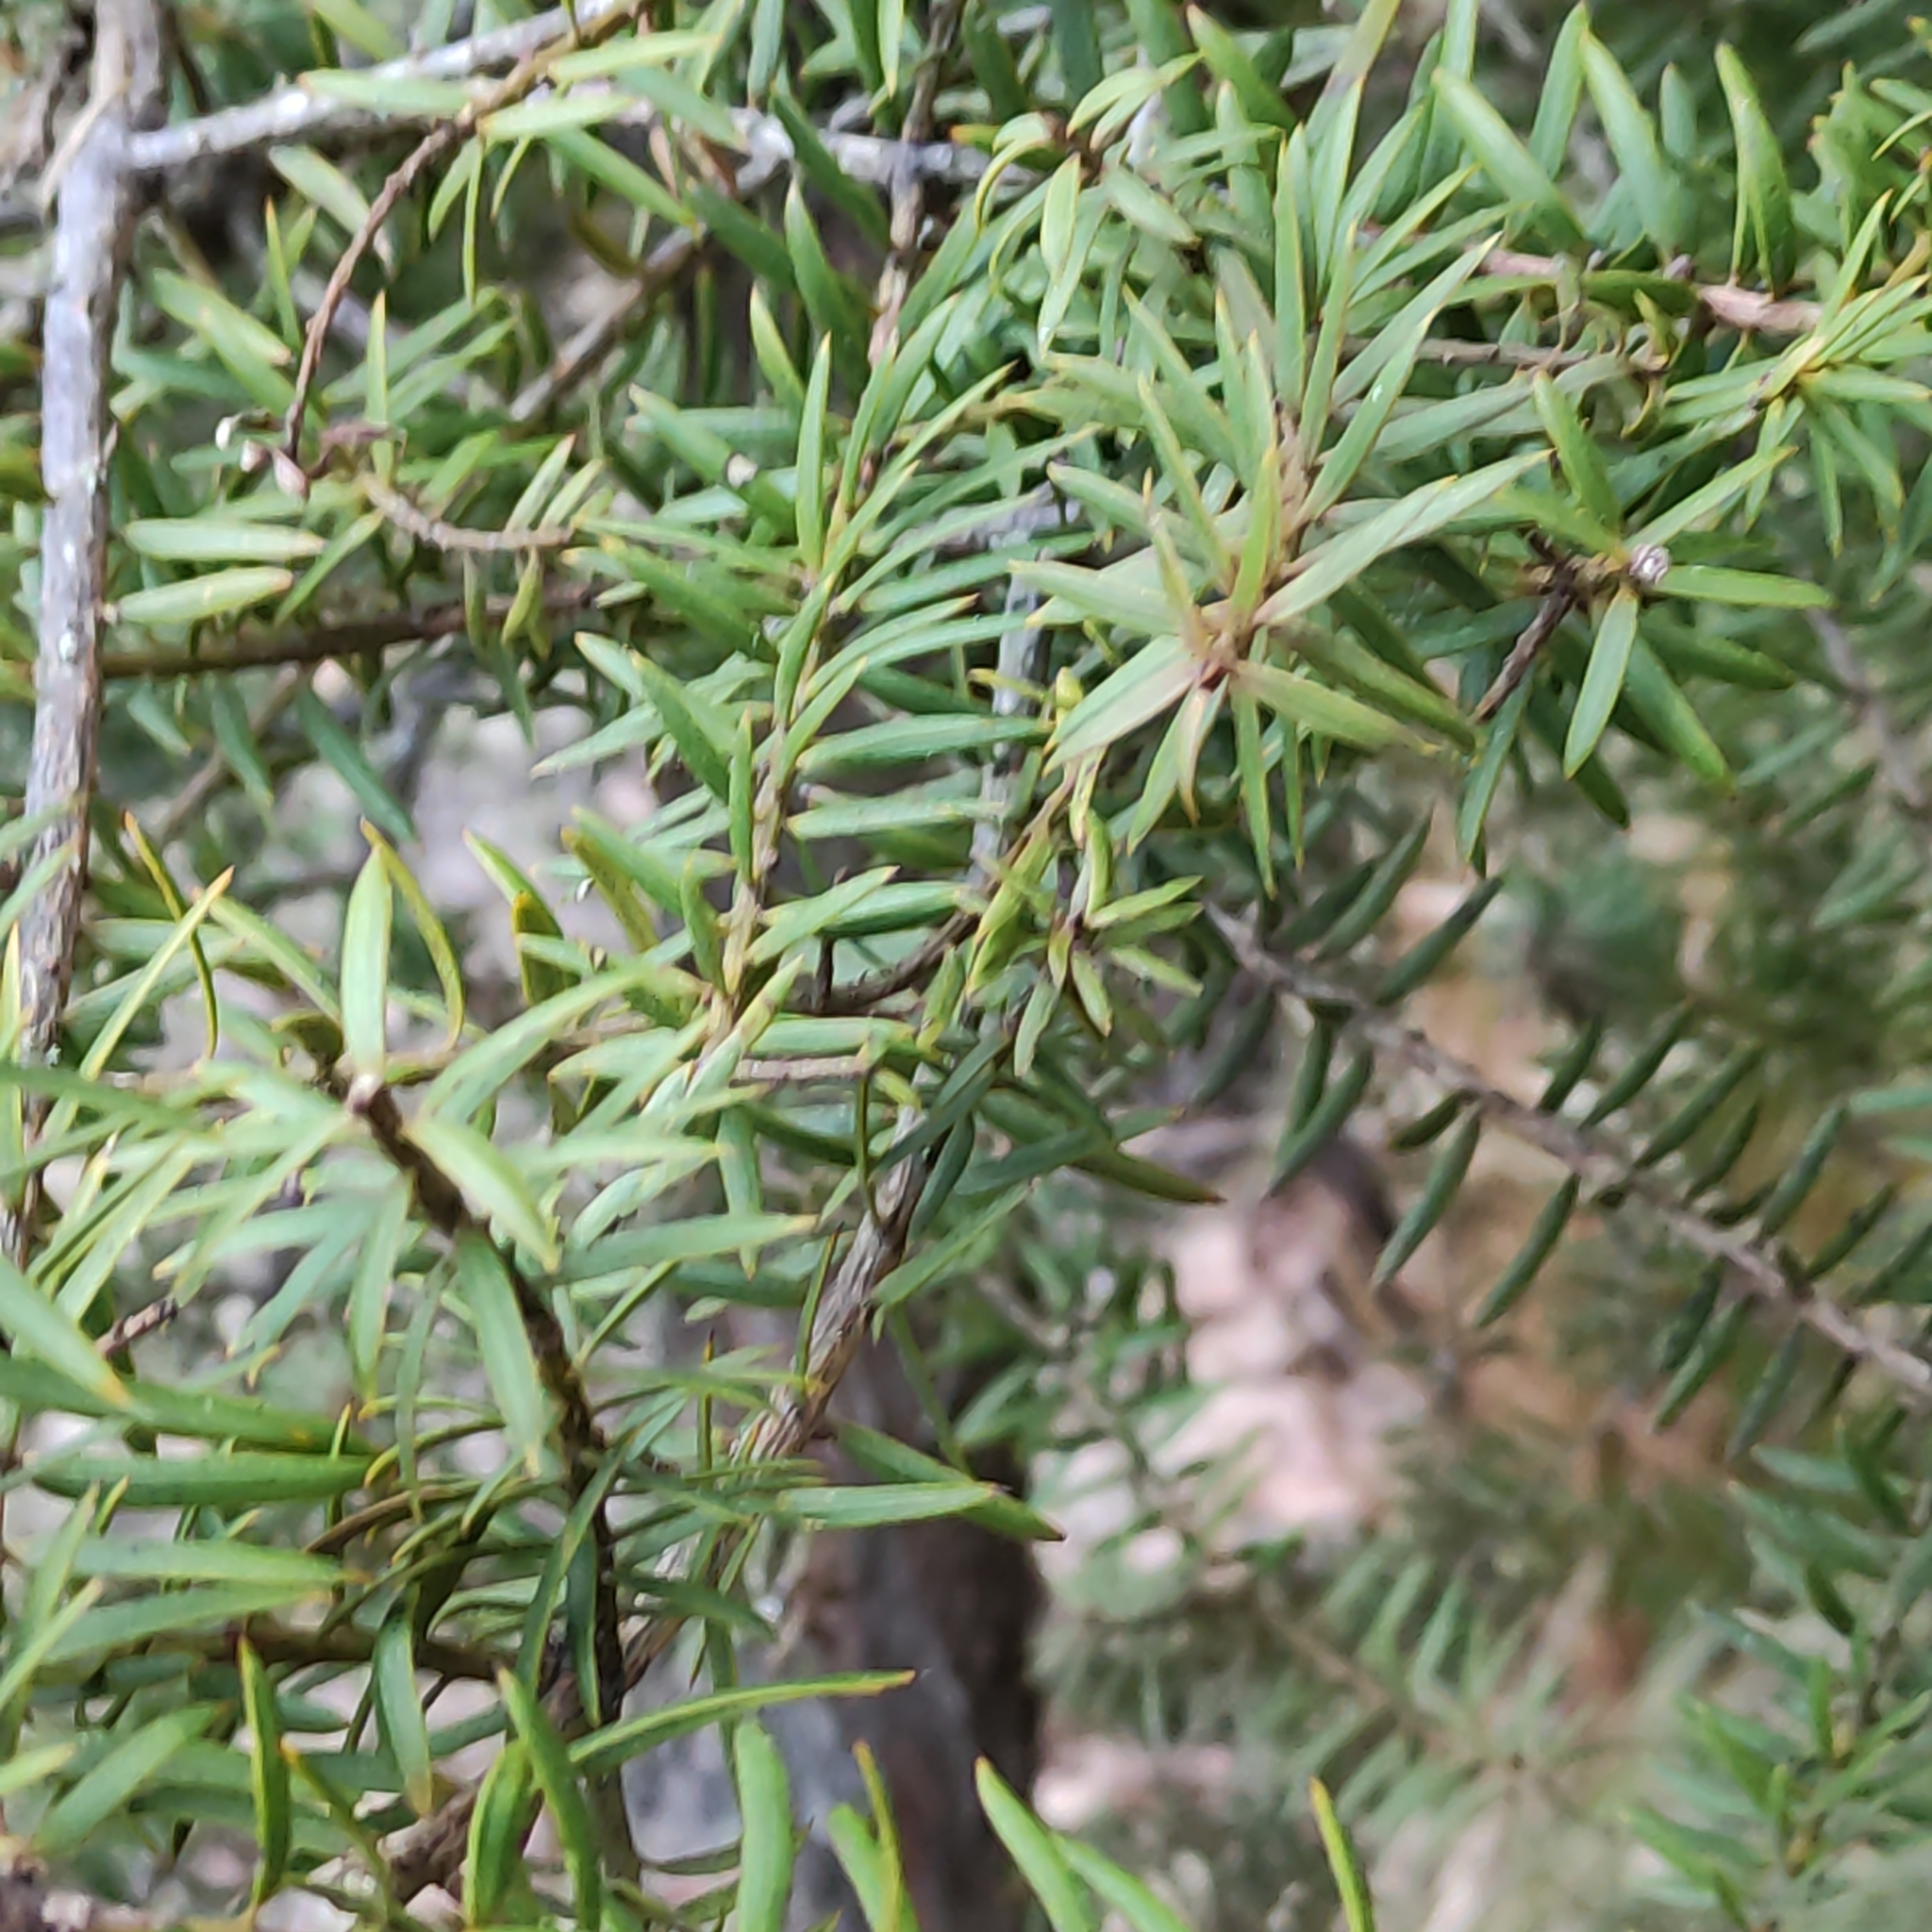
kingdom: Plantae
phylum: Tracheophyta
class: Pinopsida
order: Pinales
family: Podocarpaceae
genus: Podocarpus
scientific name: Podocarpus totara
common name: Totara
